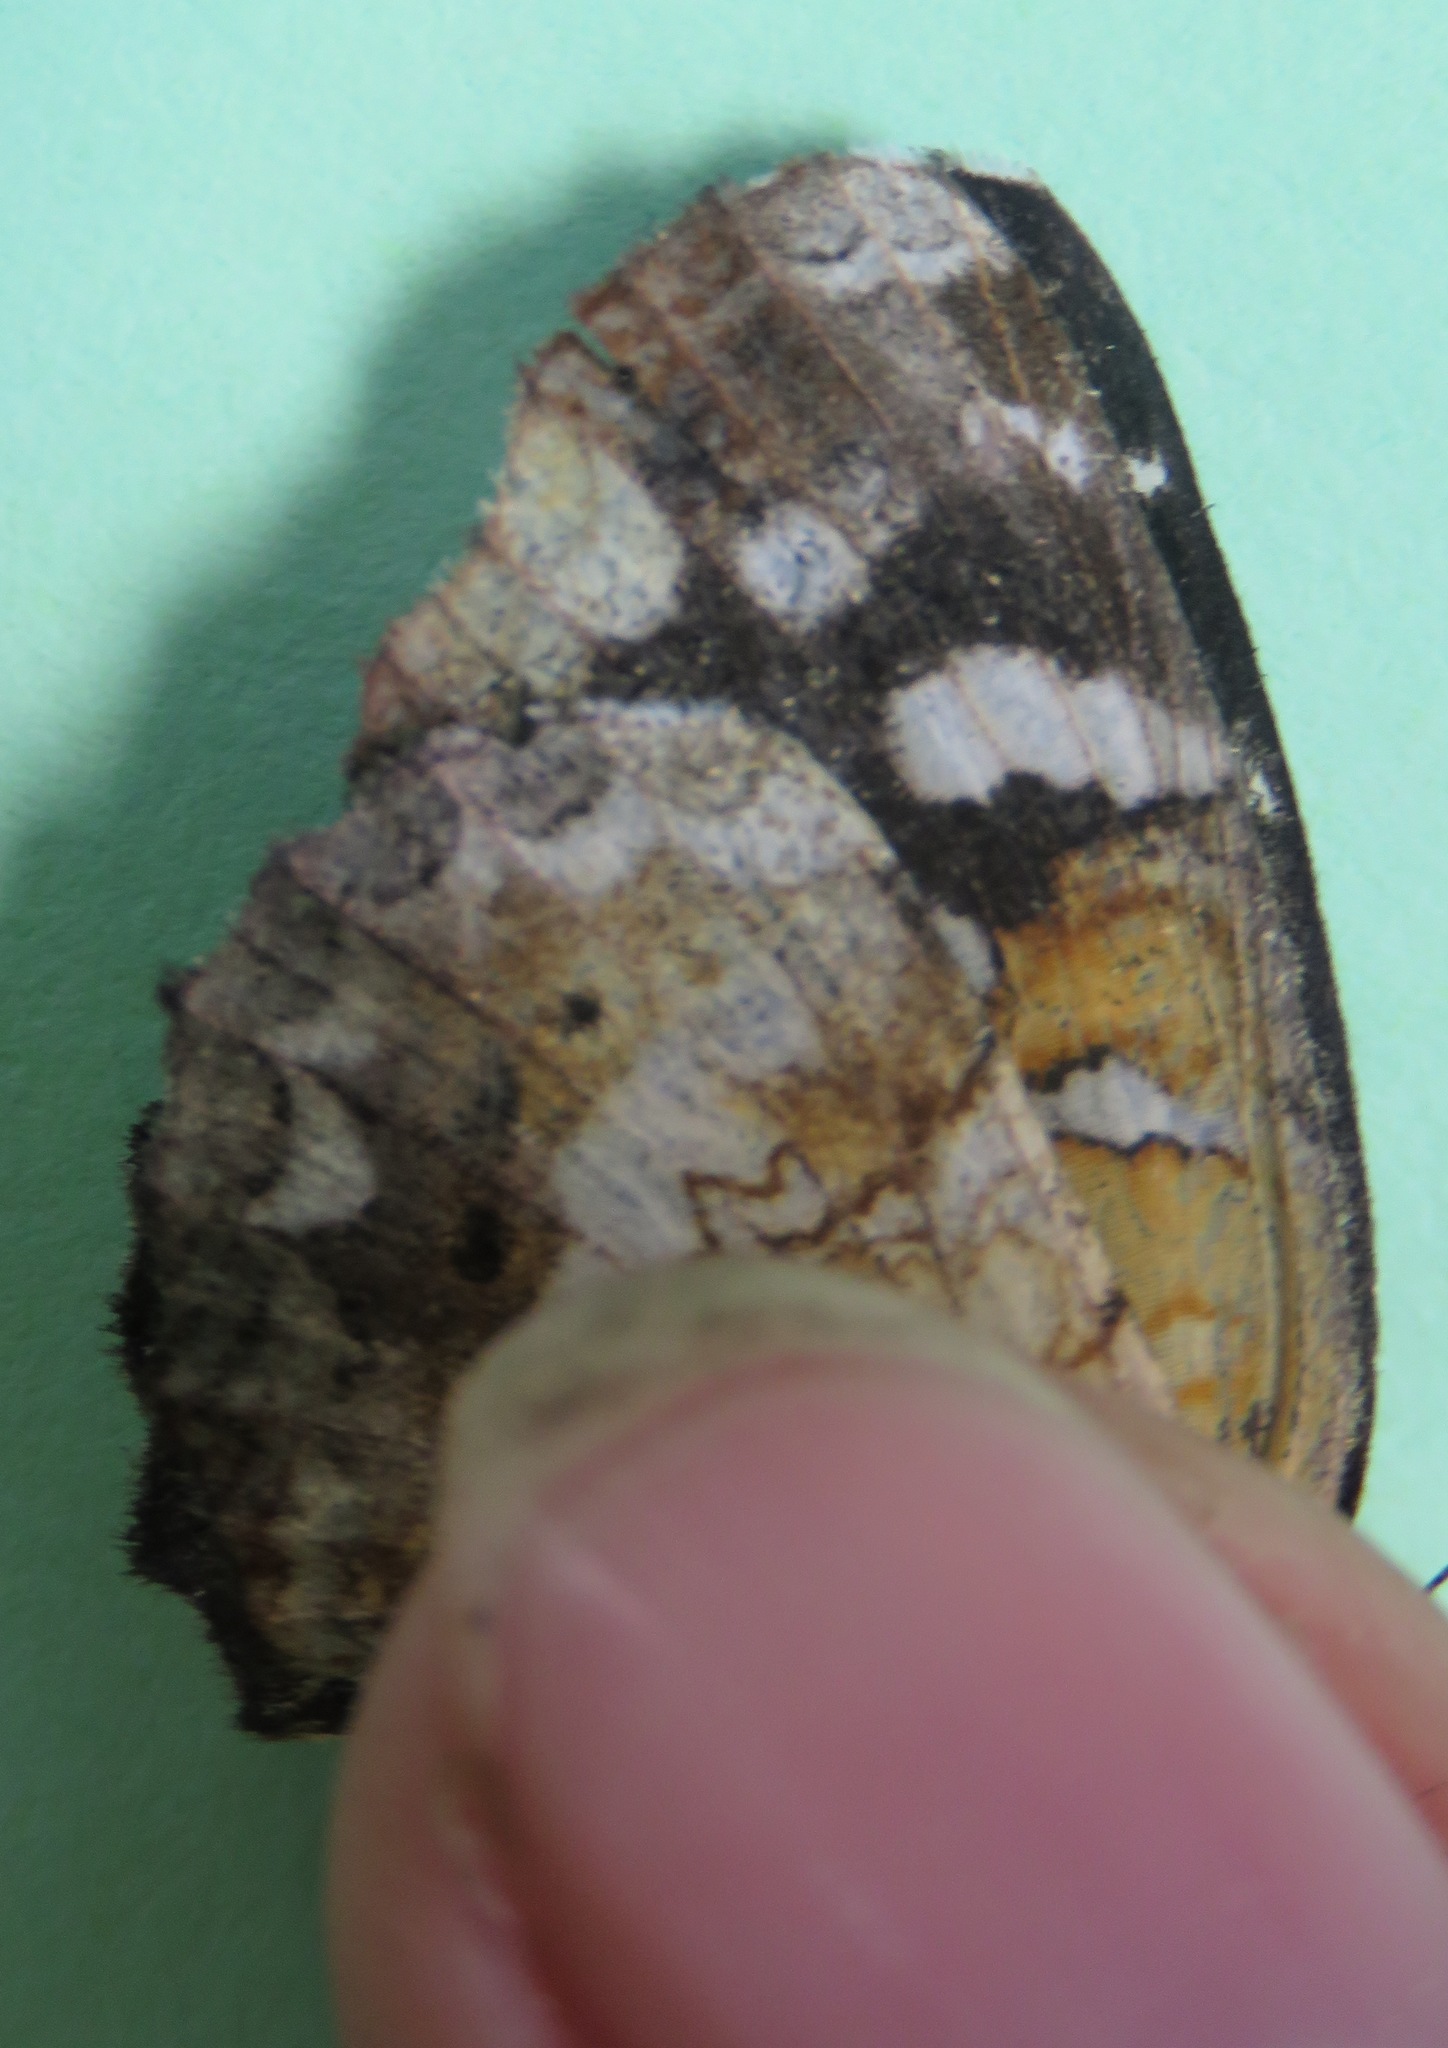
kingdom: Animalia
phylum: Arthropoda
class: Insecta
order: Lepidoptera
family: Nymphalidae
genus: Anthanassa
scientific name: Anthanassa tulcis
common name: Pale-banded crescent
